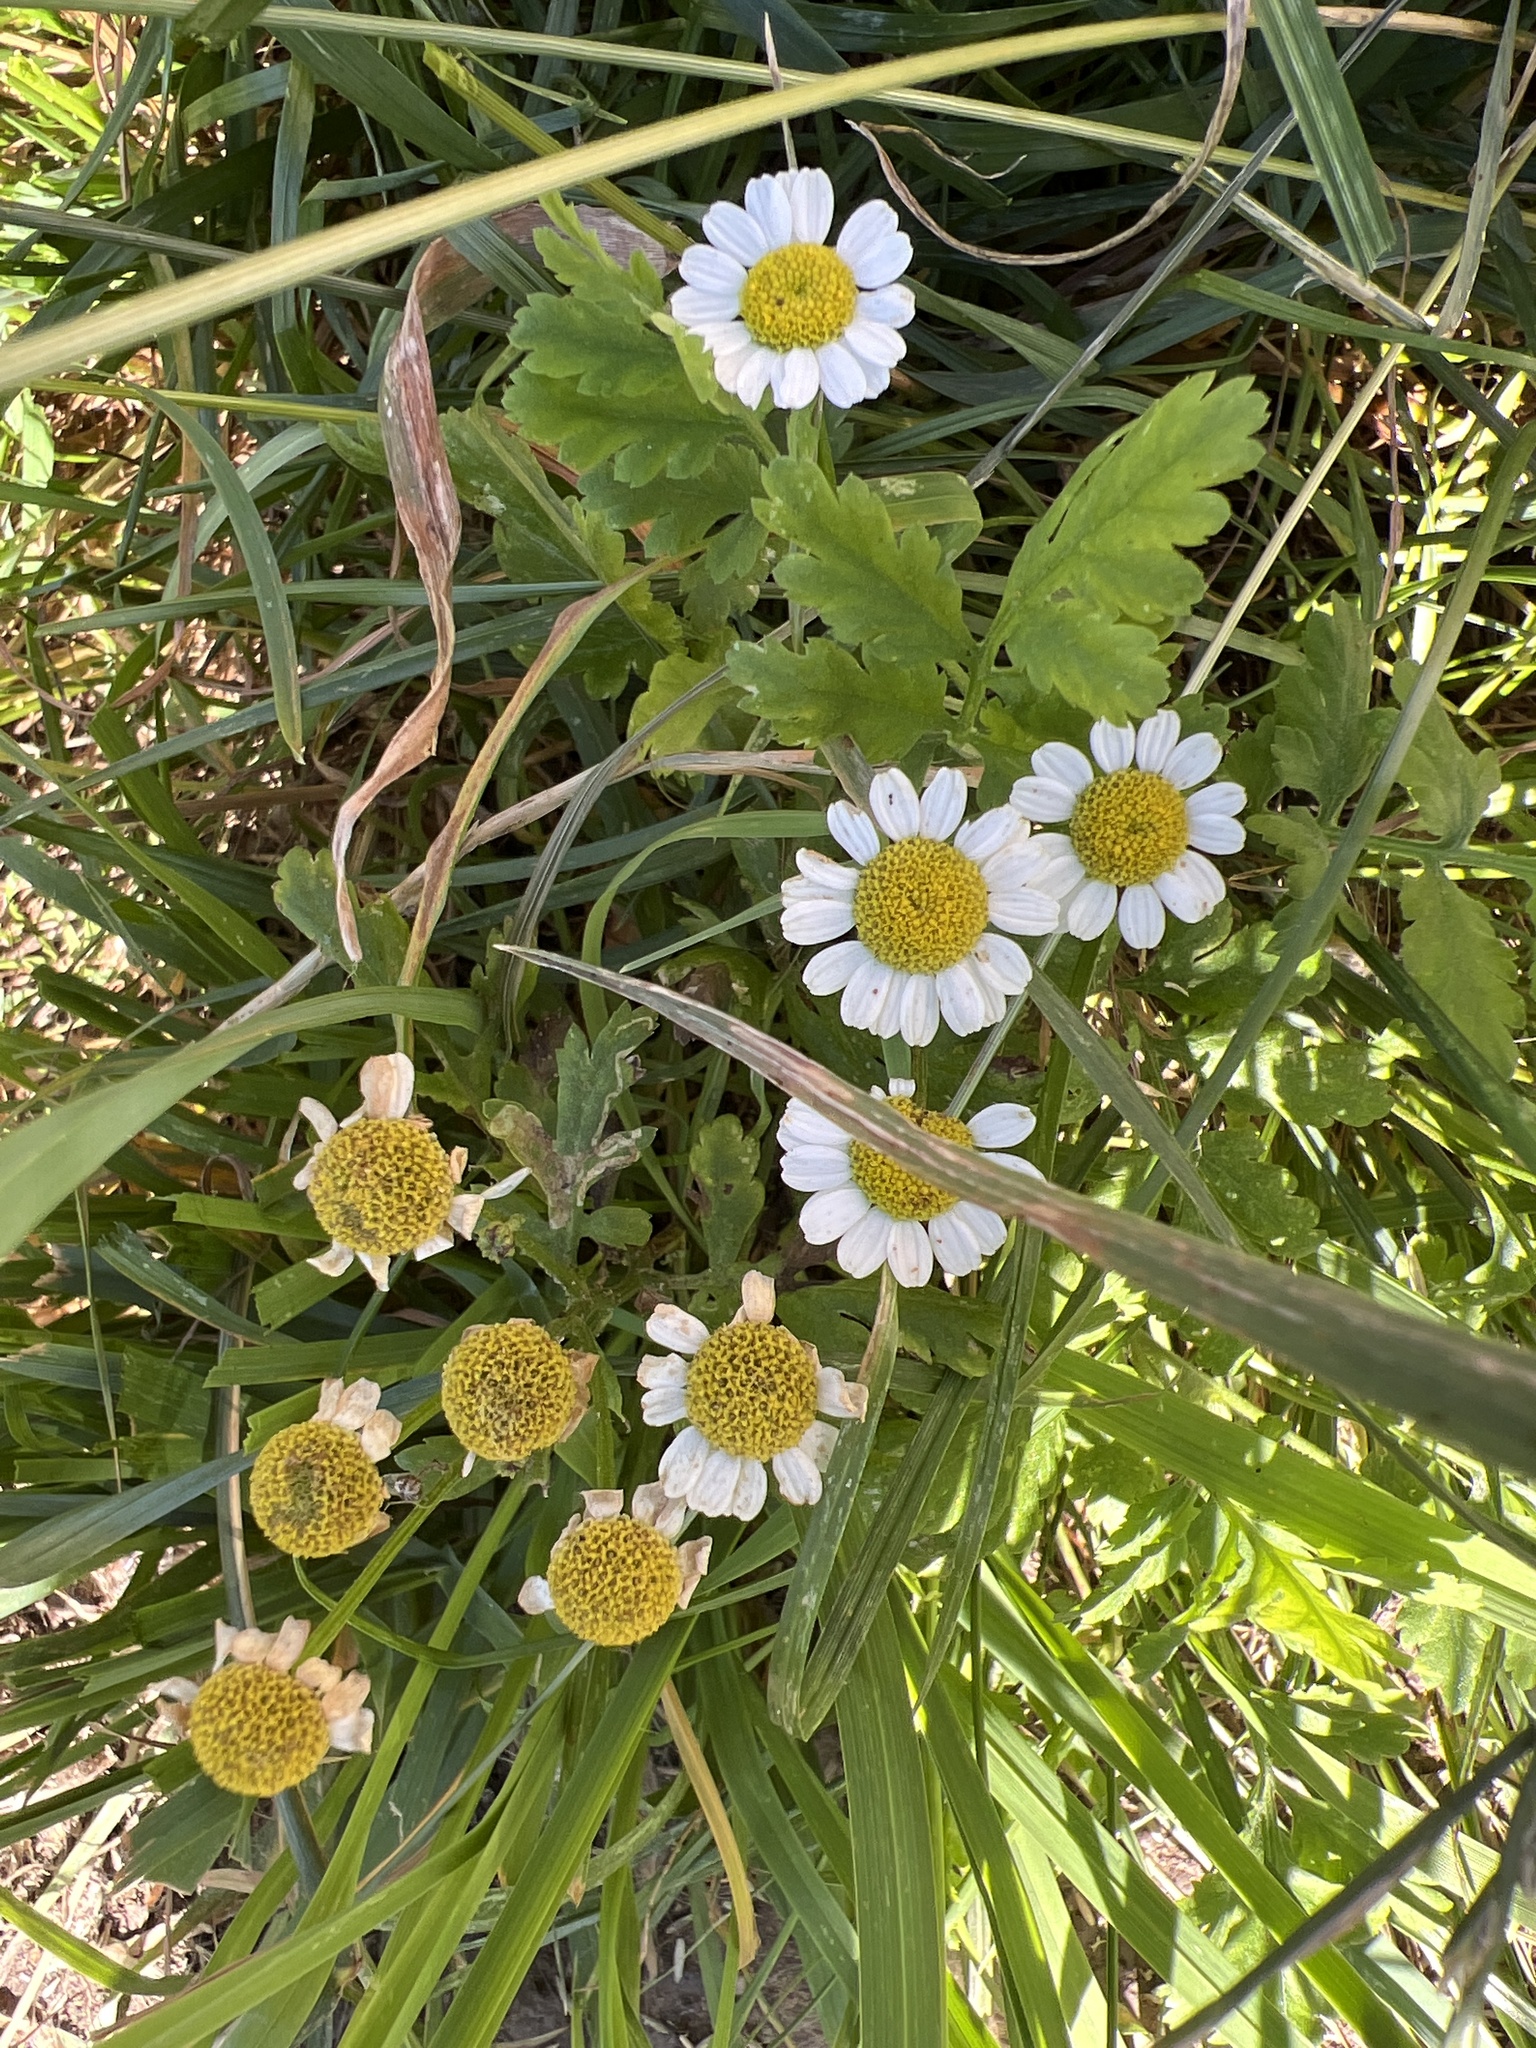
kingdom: Plantae
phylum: Tracheophyta
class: Magnoliopsida
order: Asterales
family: Asteraceae
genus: Tanacetum
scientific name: Tanacetum parthenium
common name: Feverfew
